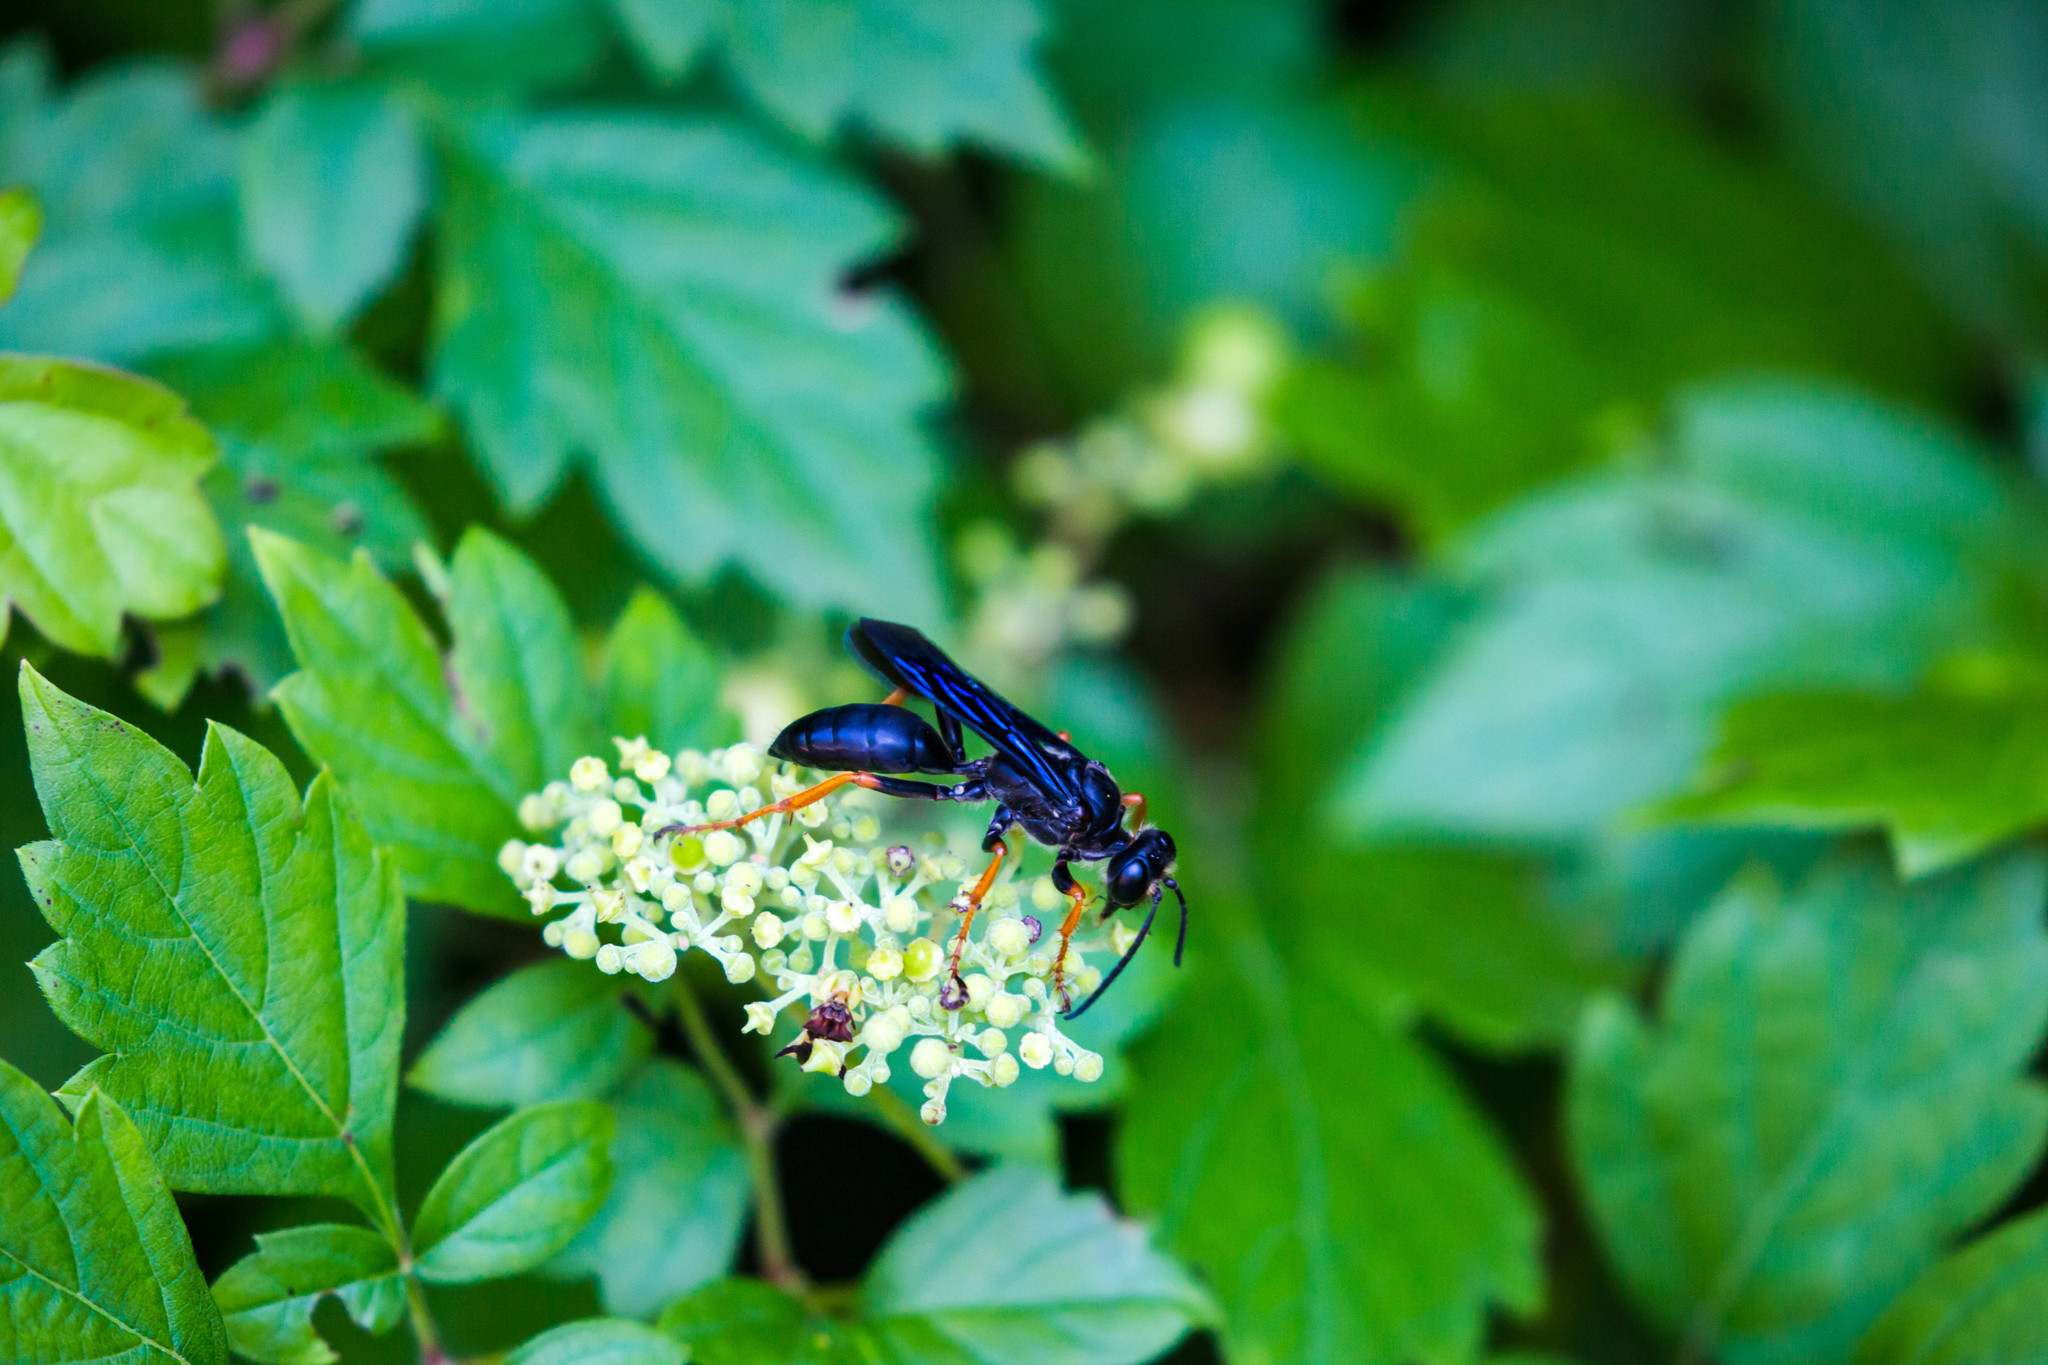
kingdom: Animalia
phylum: Arthropoda
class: Insecta
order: Hymenoptera
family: Sphecidae
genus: Sphex
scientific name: Sphex nudus
